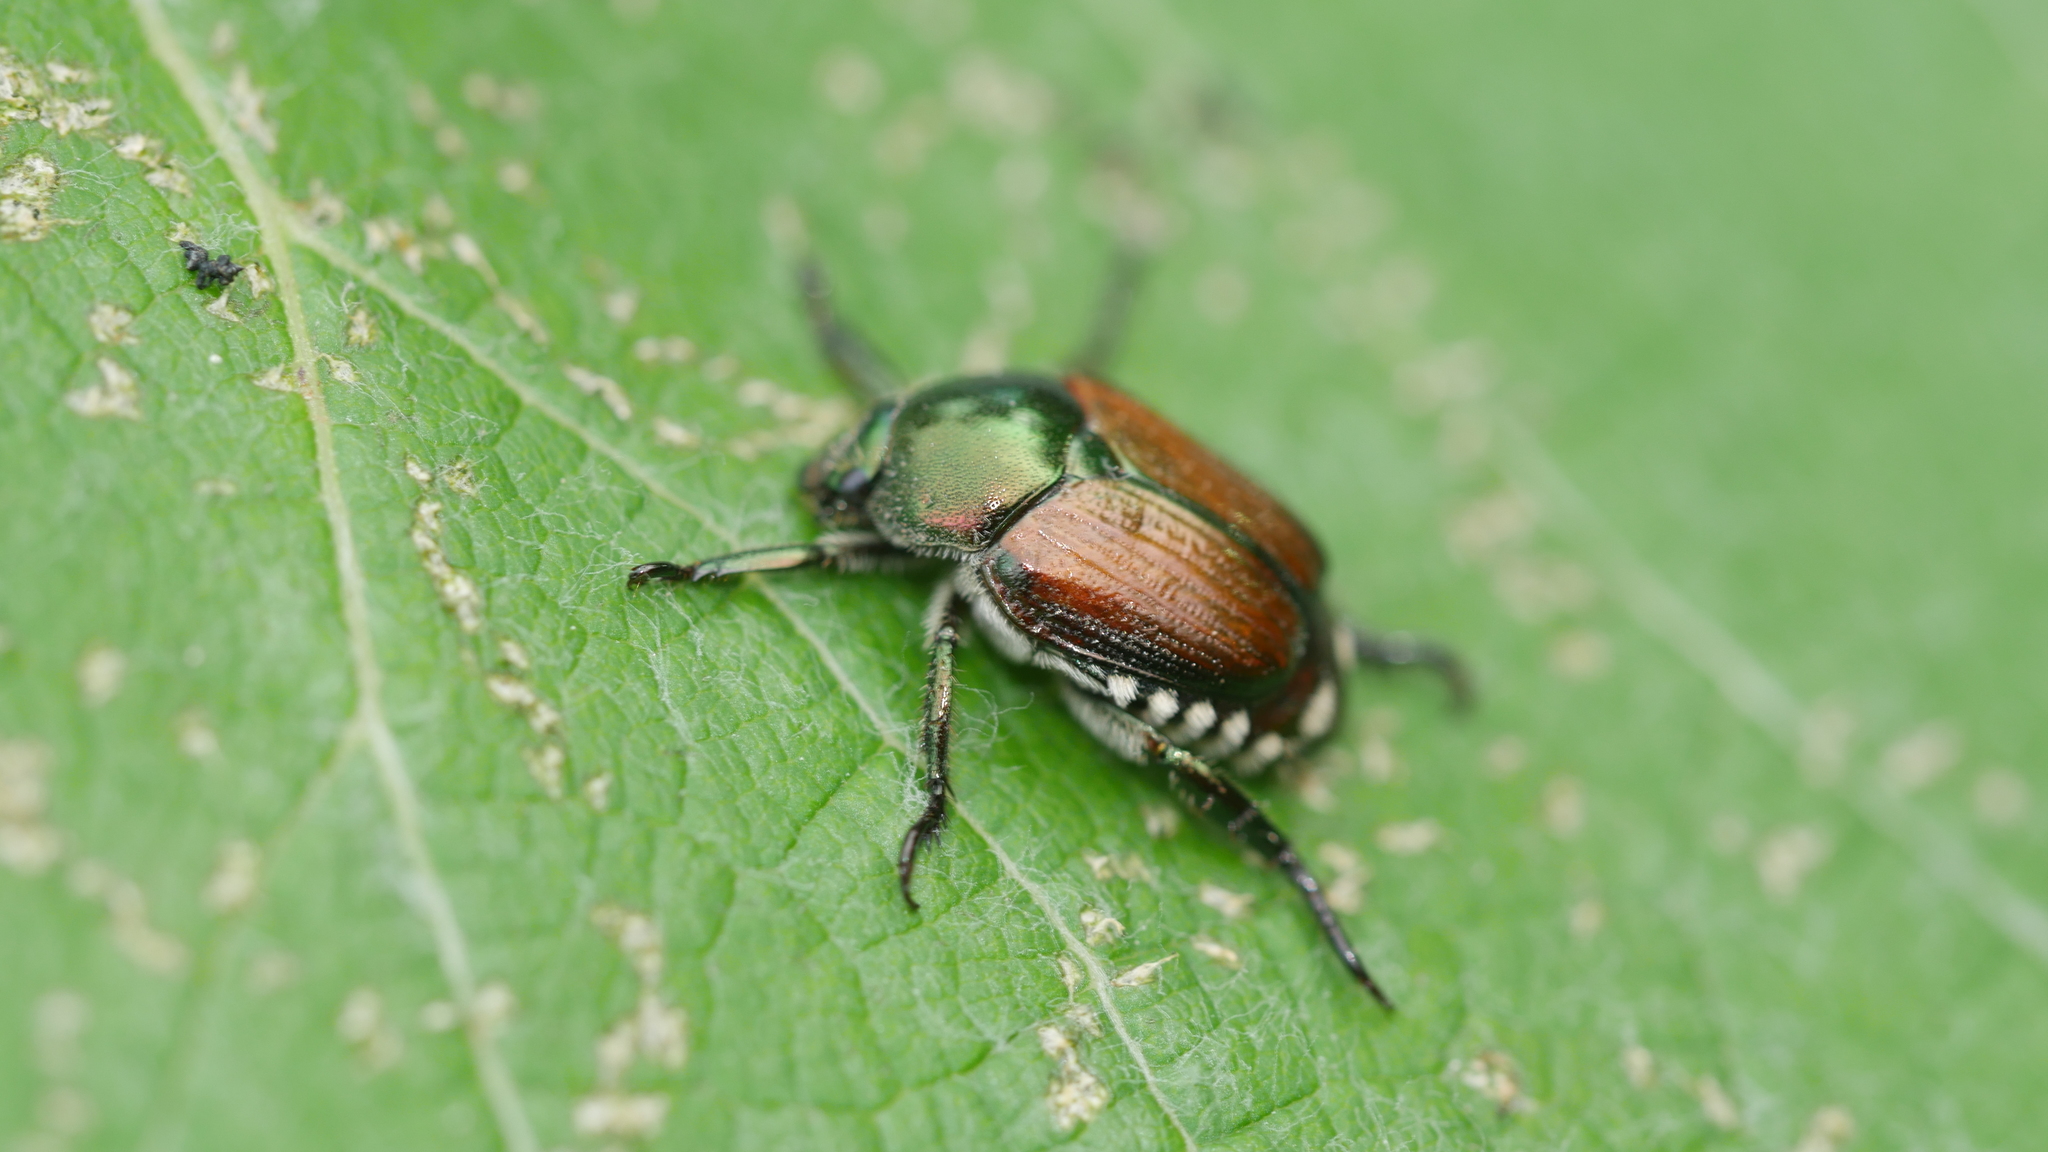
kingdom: Animalia
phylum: Arthropoda
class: Insecta
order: Coleoptera
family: Scarabaeidae
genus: Popillia
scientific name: Popillia japonica
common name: Japanese beetle
